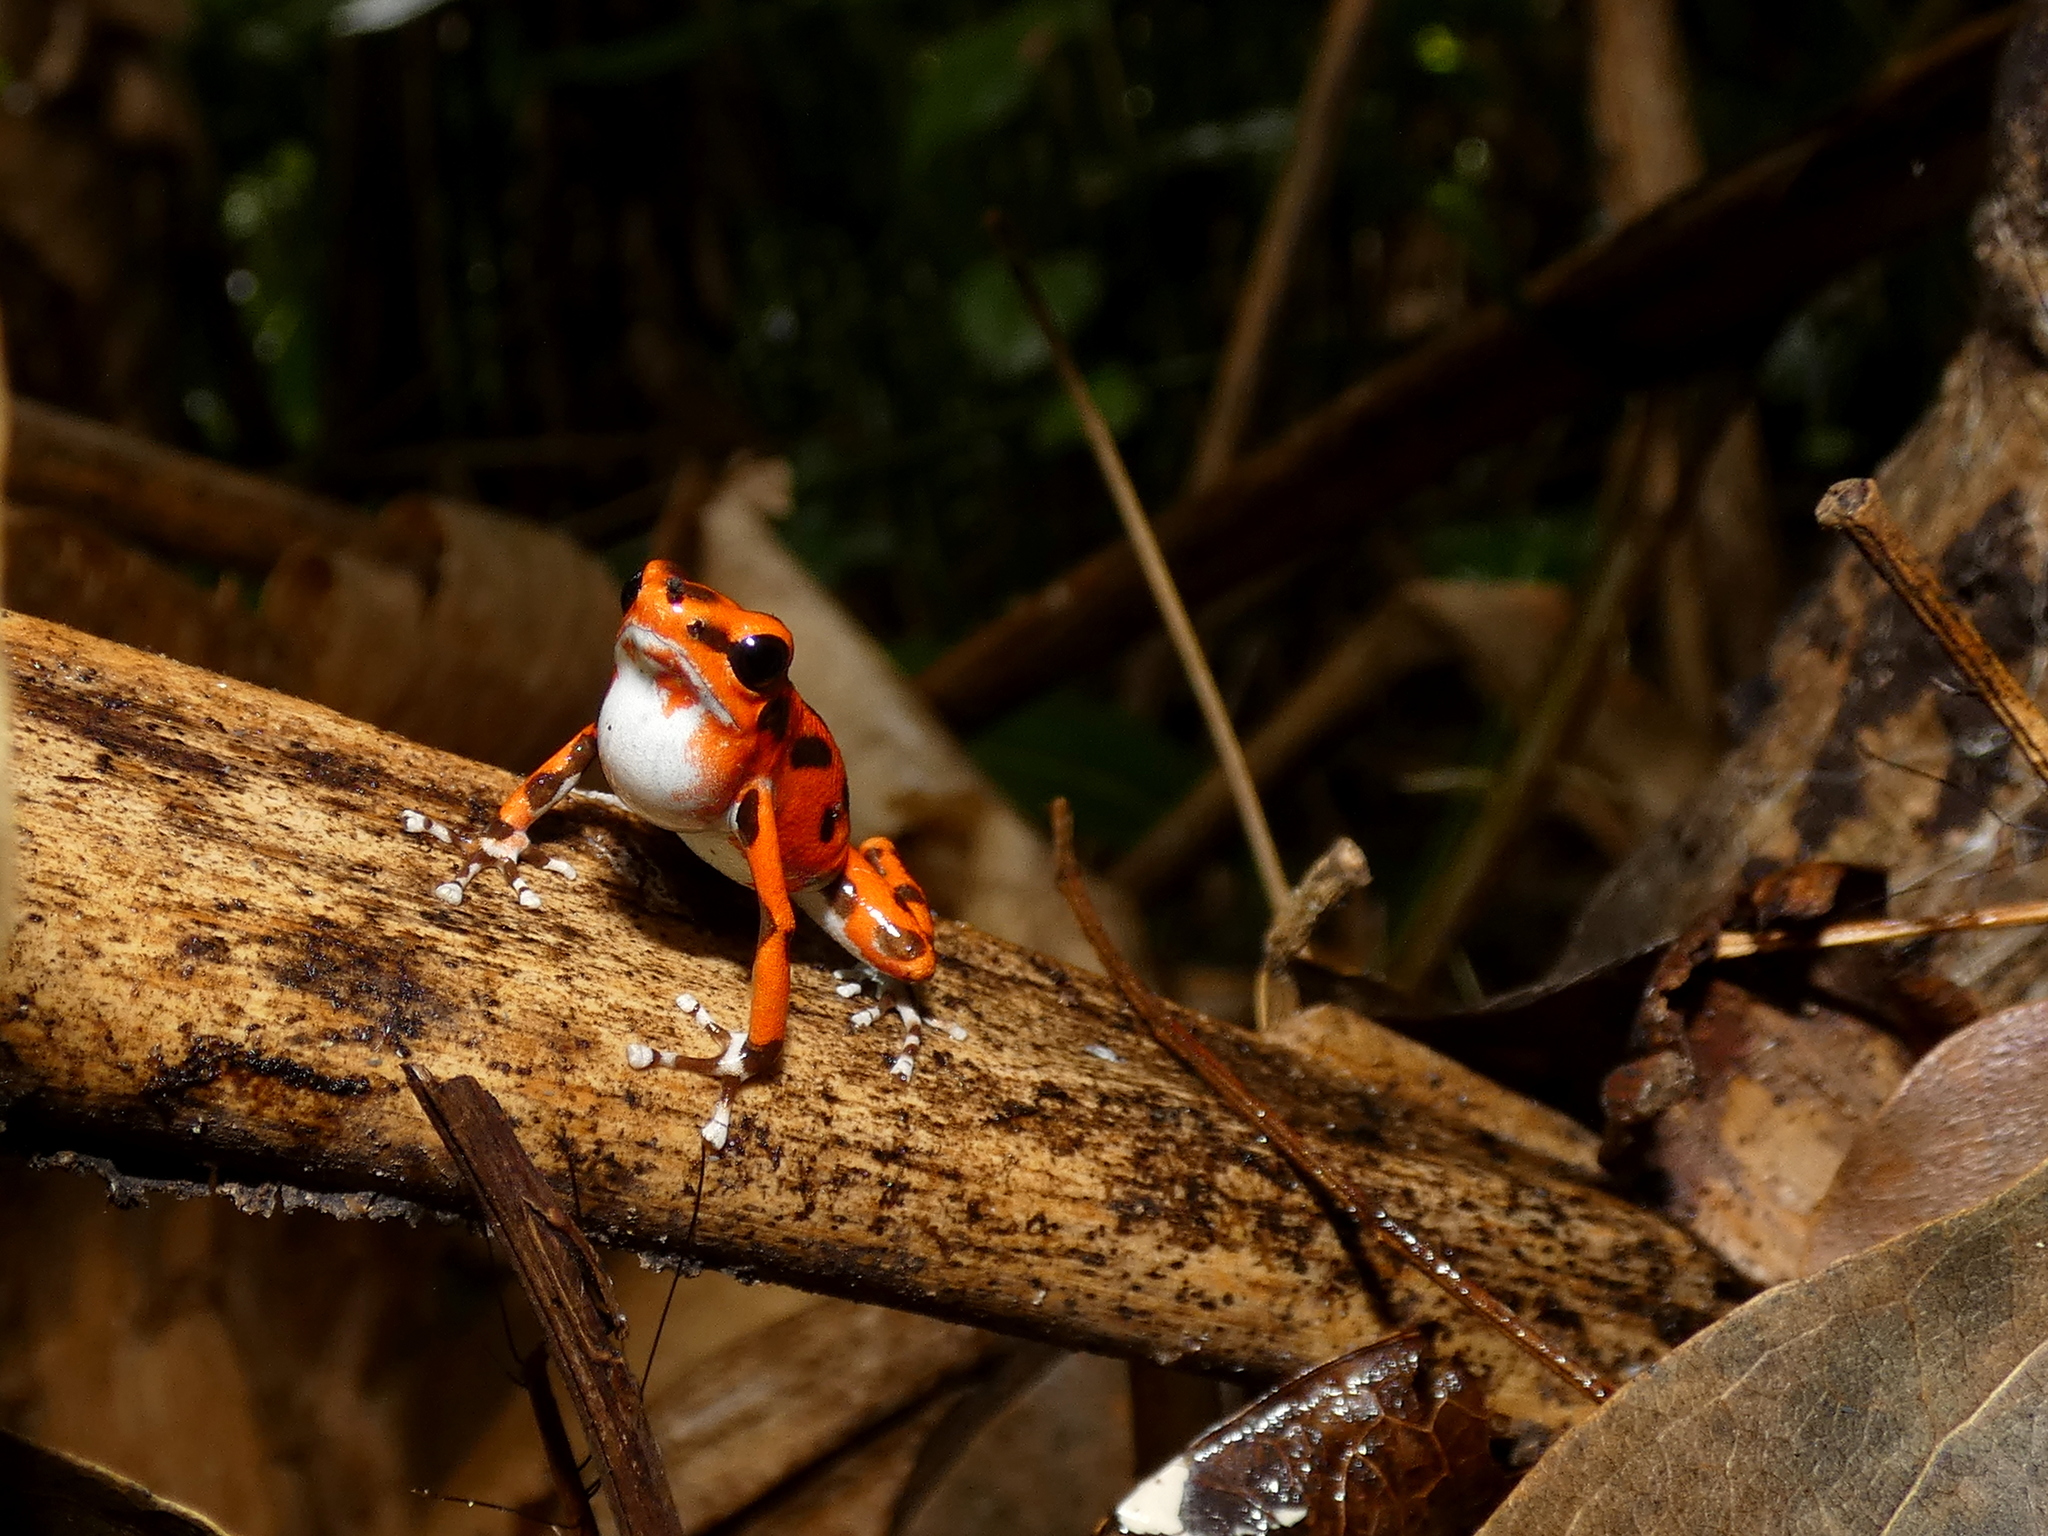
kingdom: Animalia
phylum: Chordata
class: Amphibia
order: Anura
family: Dendrobatidae
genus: Oophaga
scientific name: Oophaga pumilio
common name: Flaming poison frog
